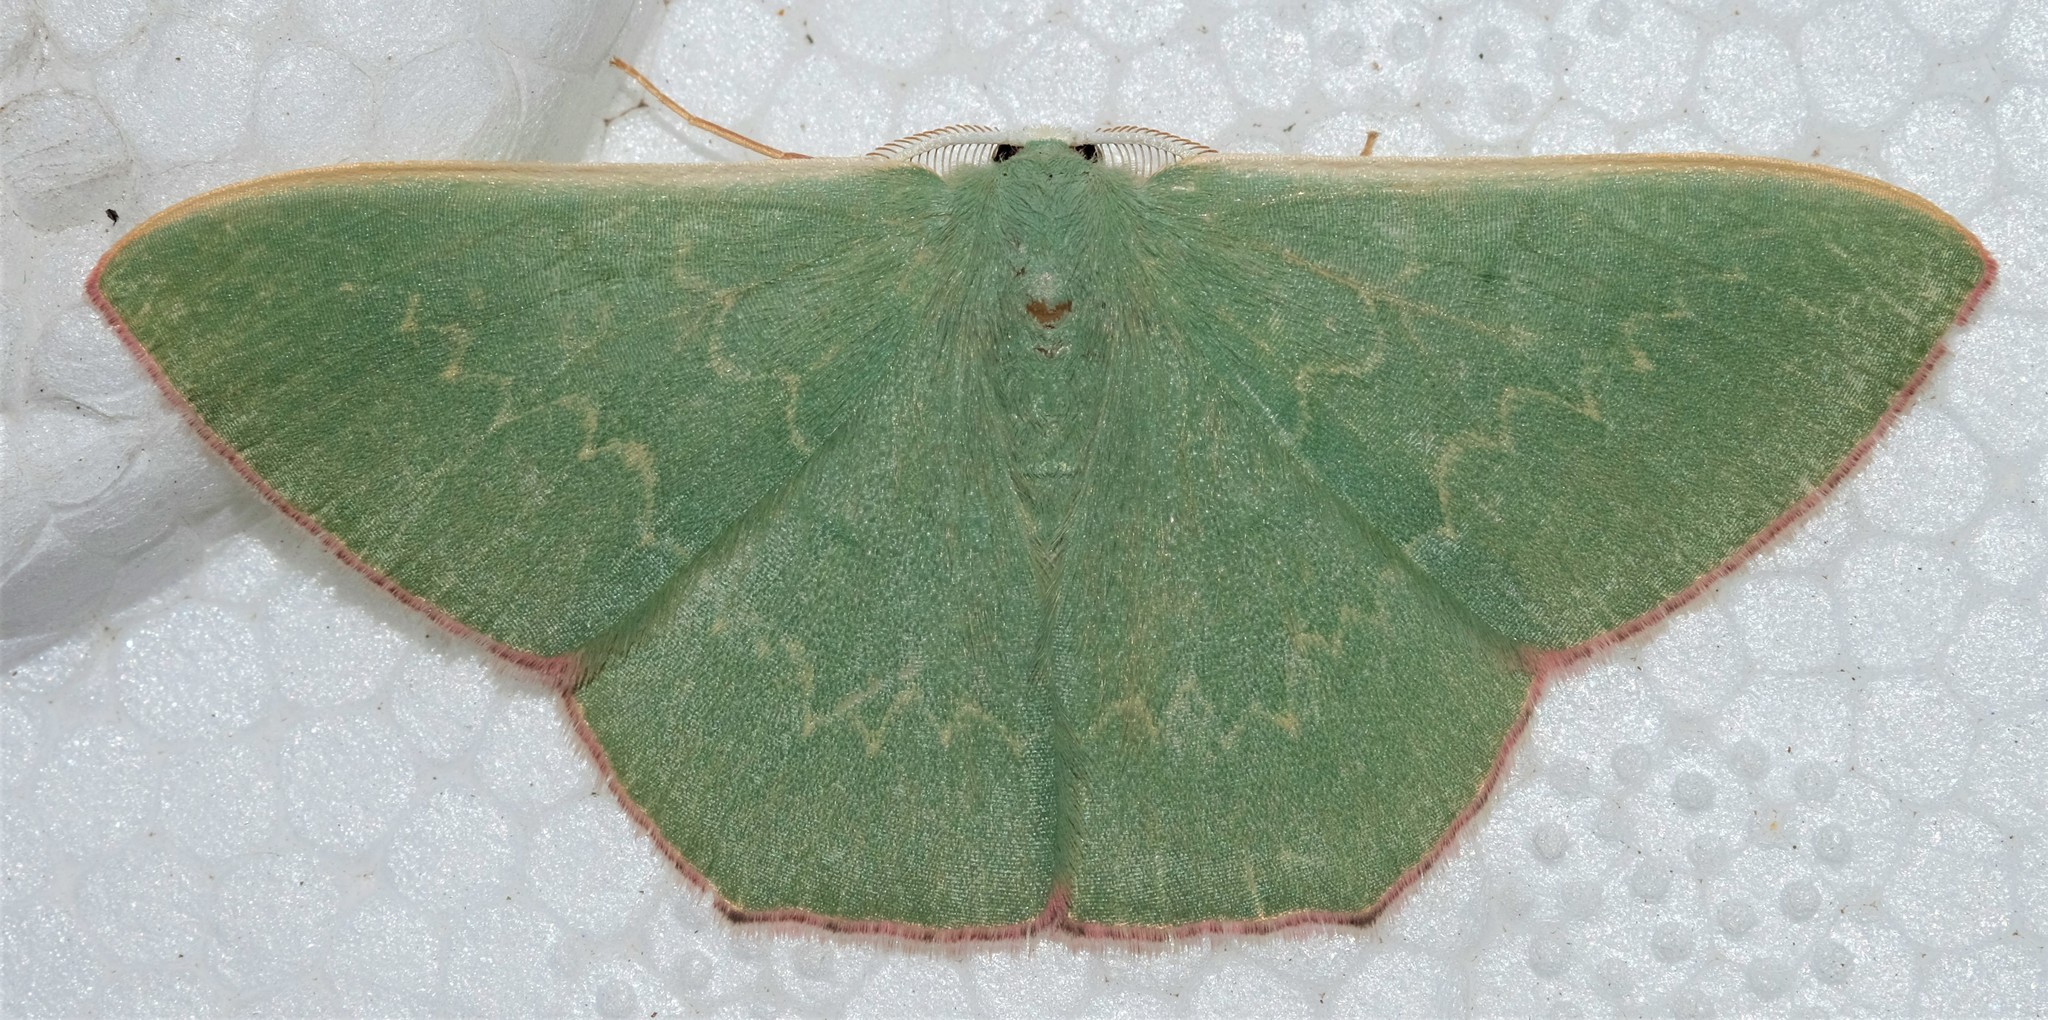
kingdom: Animalia
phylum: Arthropoda
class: Insecta
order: Lepidoptera
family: Geometridae
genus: Prasinocyma
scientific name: Prasinocyma semicrocea
